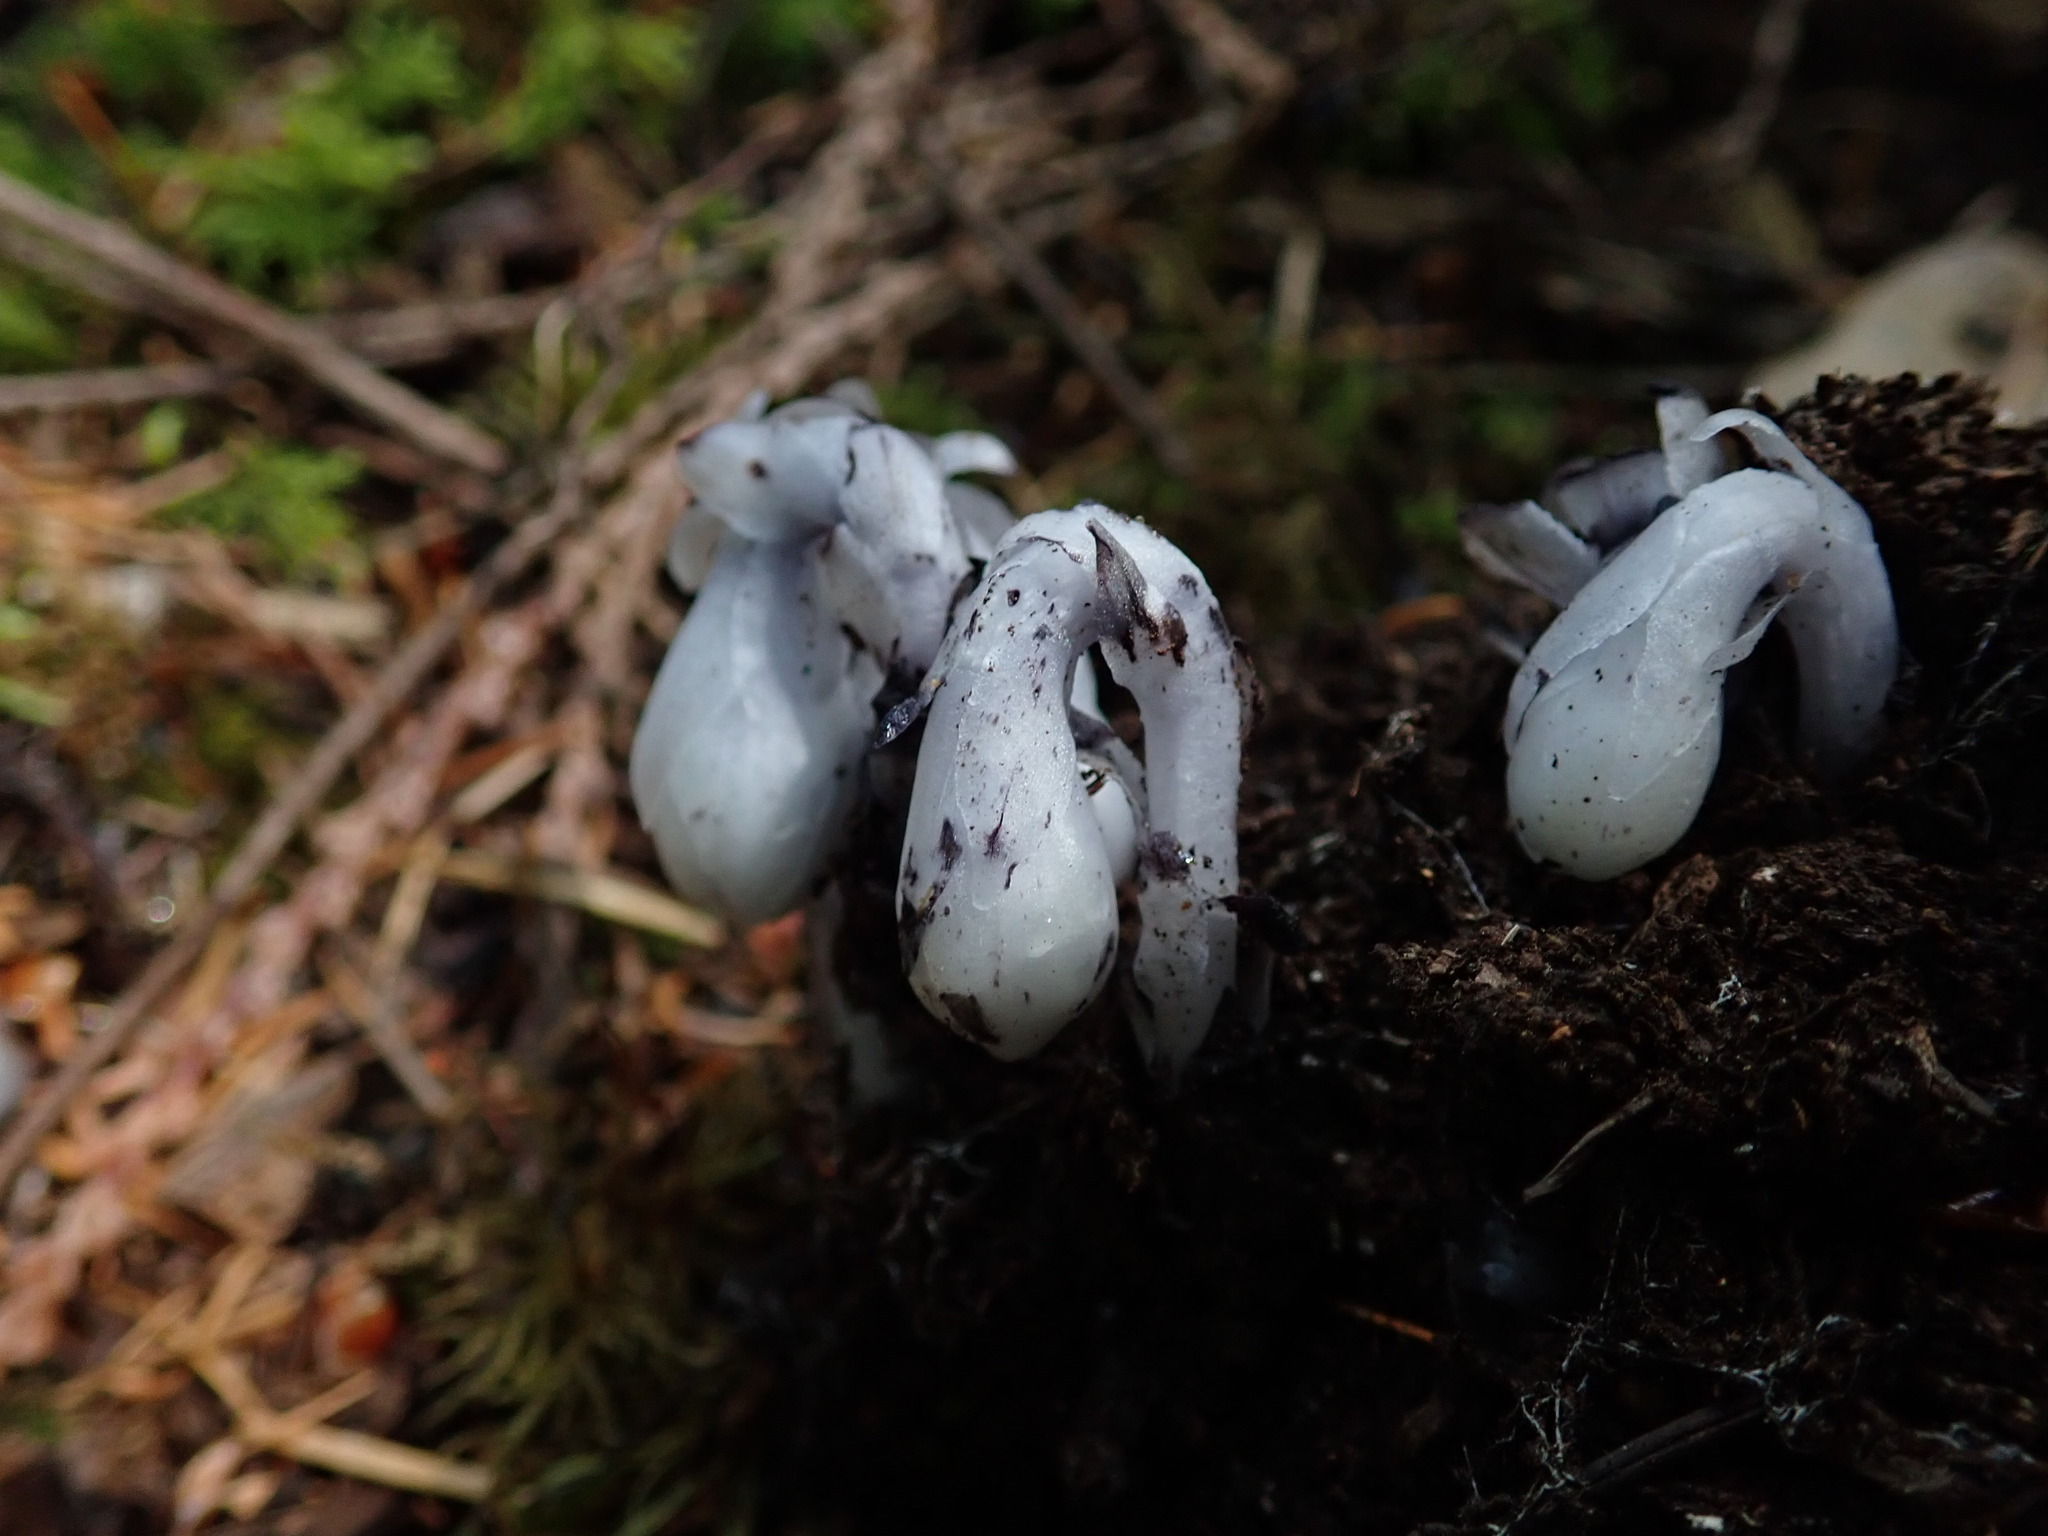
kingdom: Plantae
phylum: Tracheophyta
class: Magnoliopsida
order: Ericales
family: Ericaceae
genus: Monotropa
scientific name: Monotropa uniflora
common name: Convulsion root
